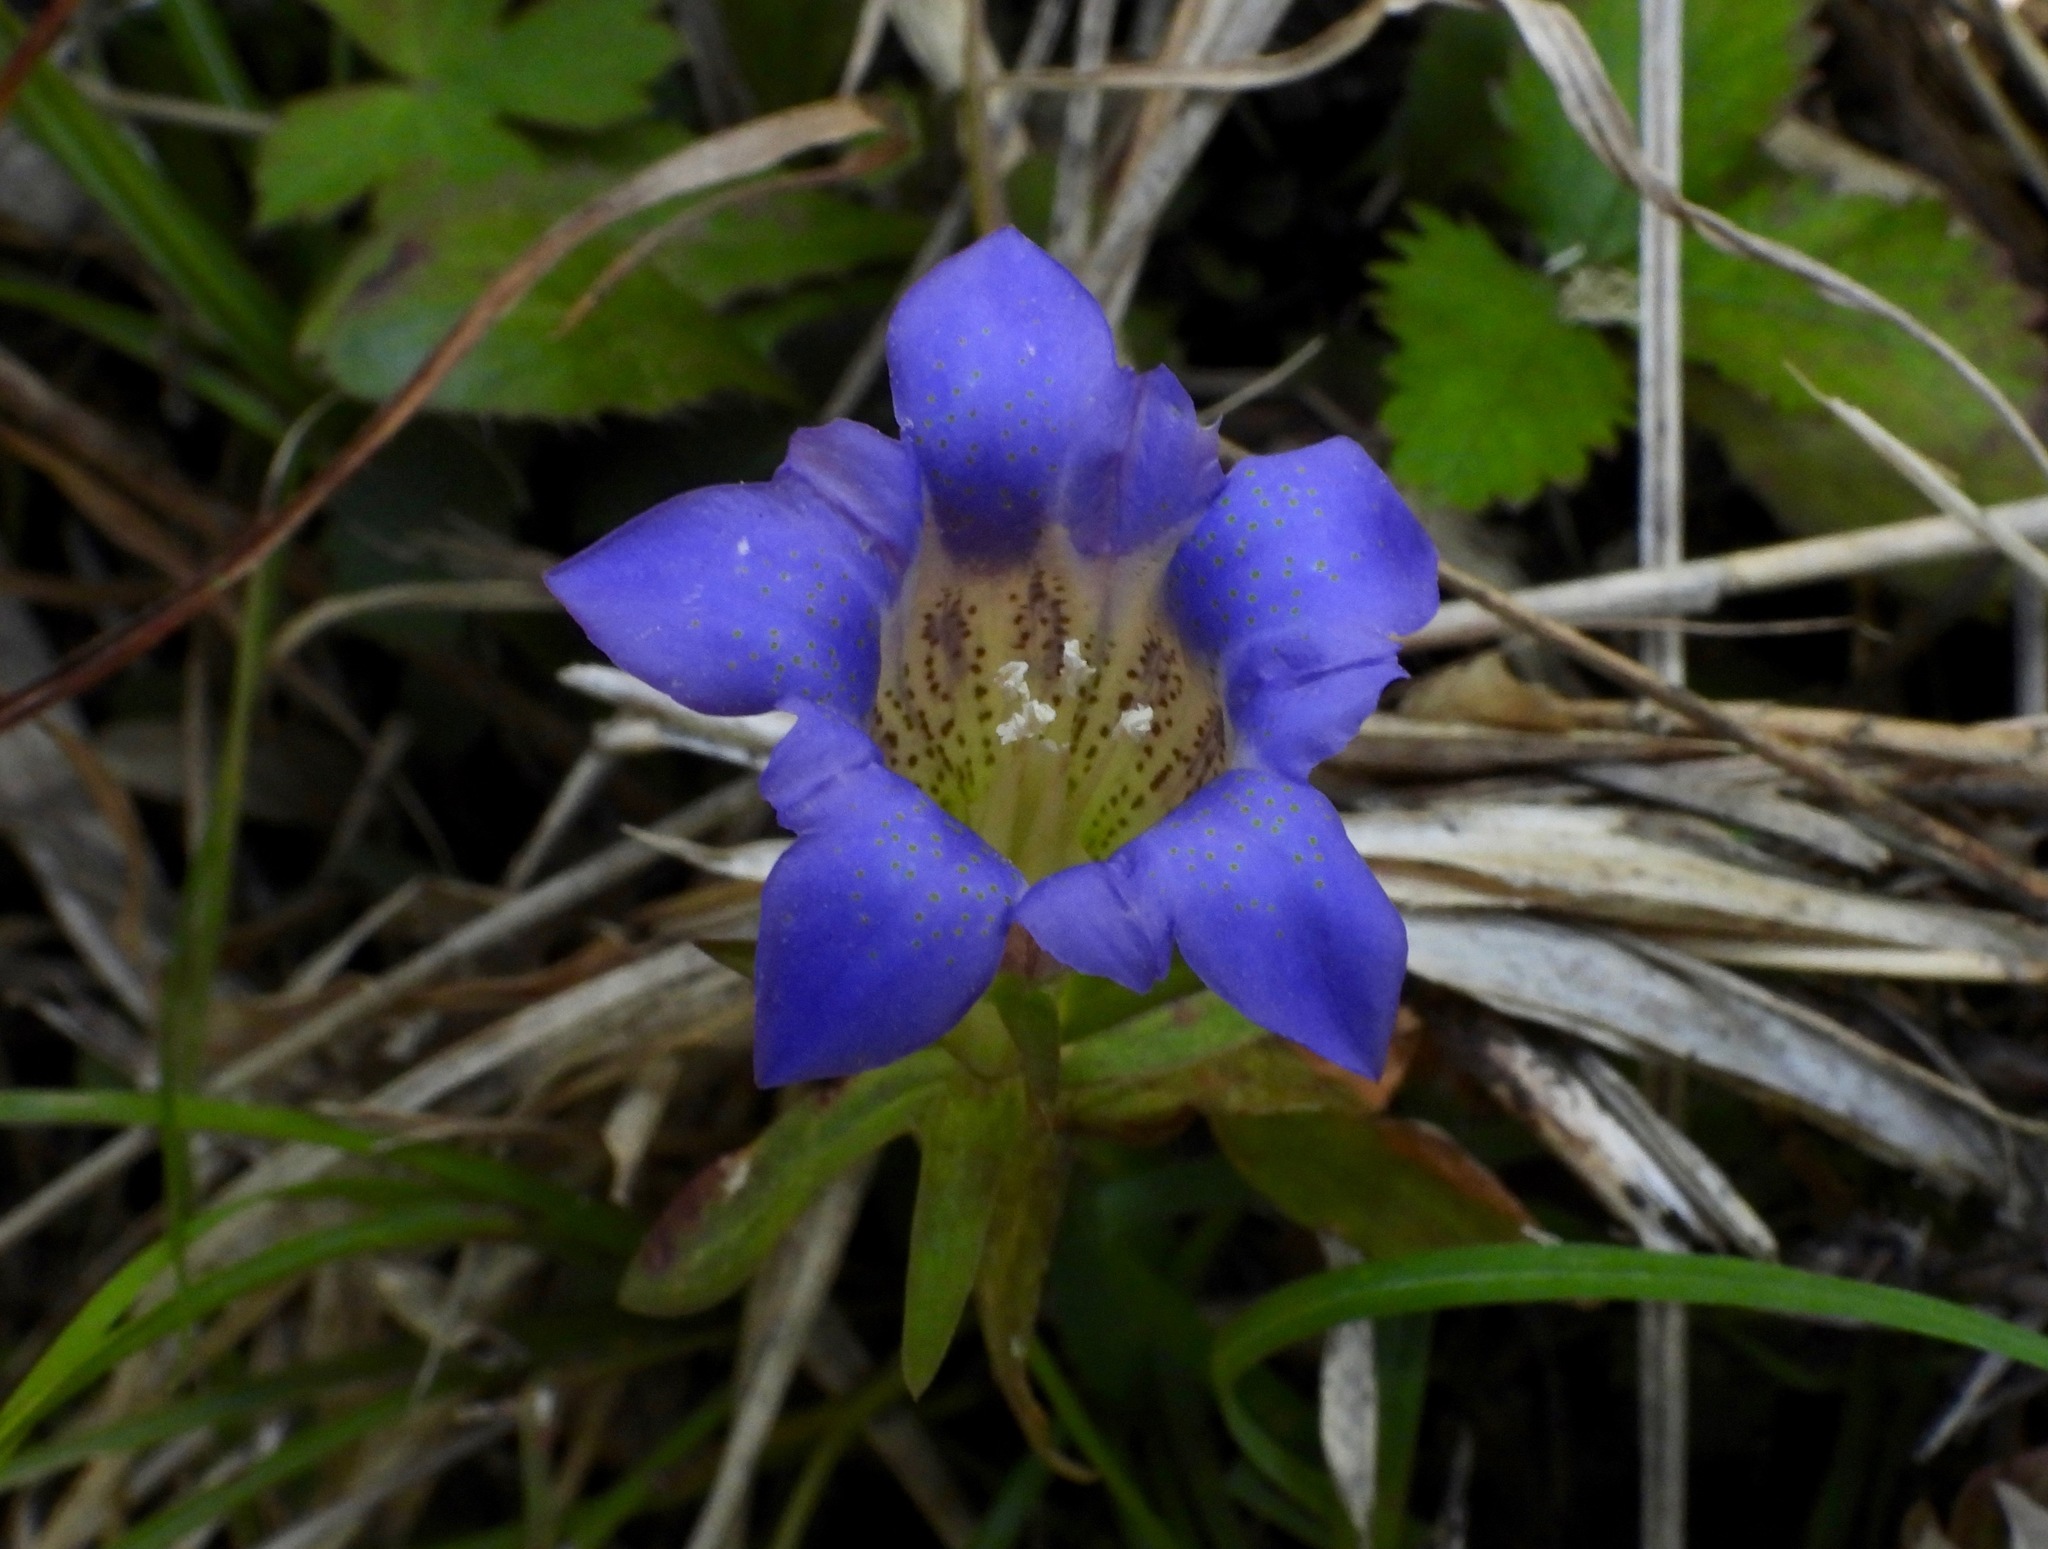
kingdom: Plantae
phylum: Tracheophyta
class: Magnoliopsida
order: Gentianales
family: Gentianaceae
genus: Gentiana
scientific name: Gentiana scabra
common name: Scabrous gentian
